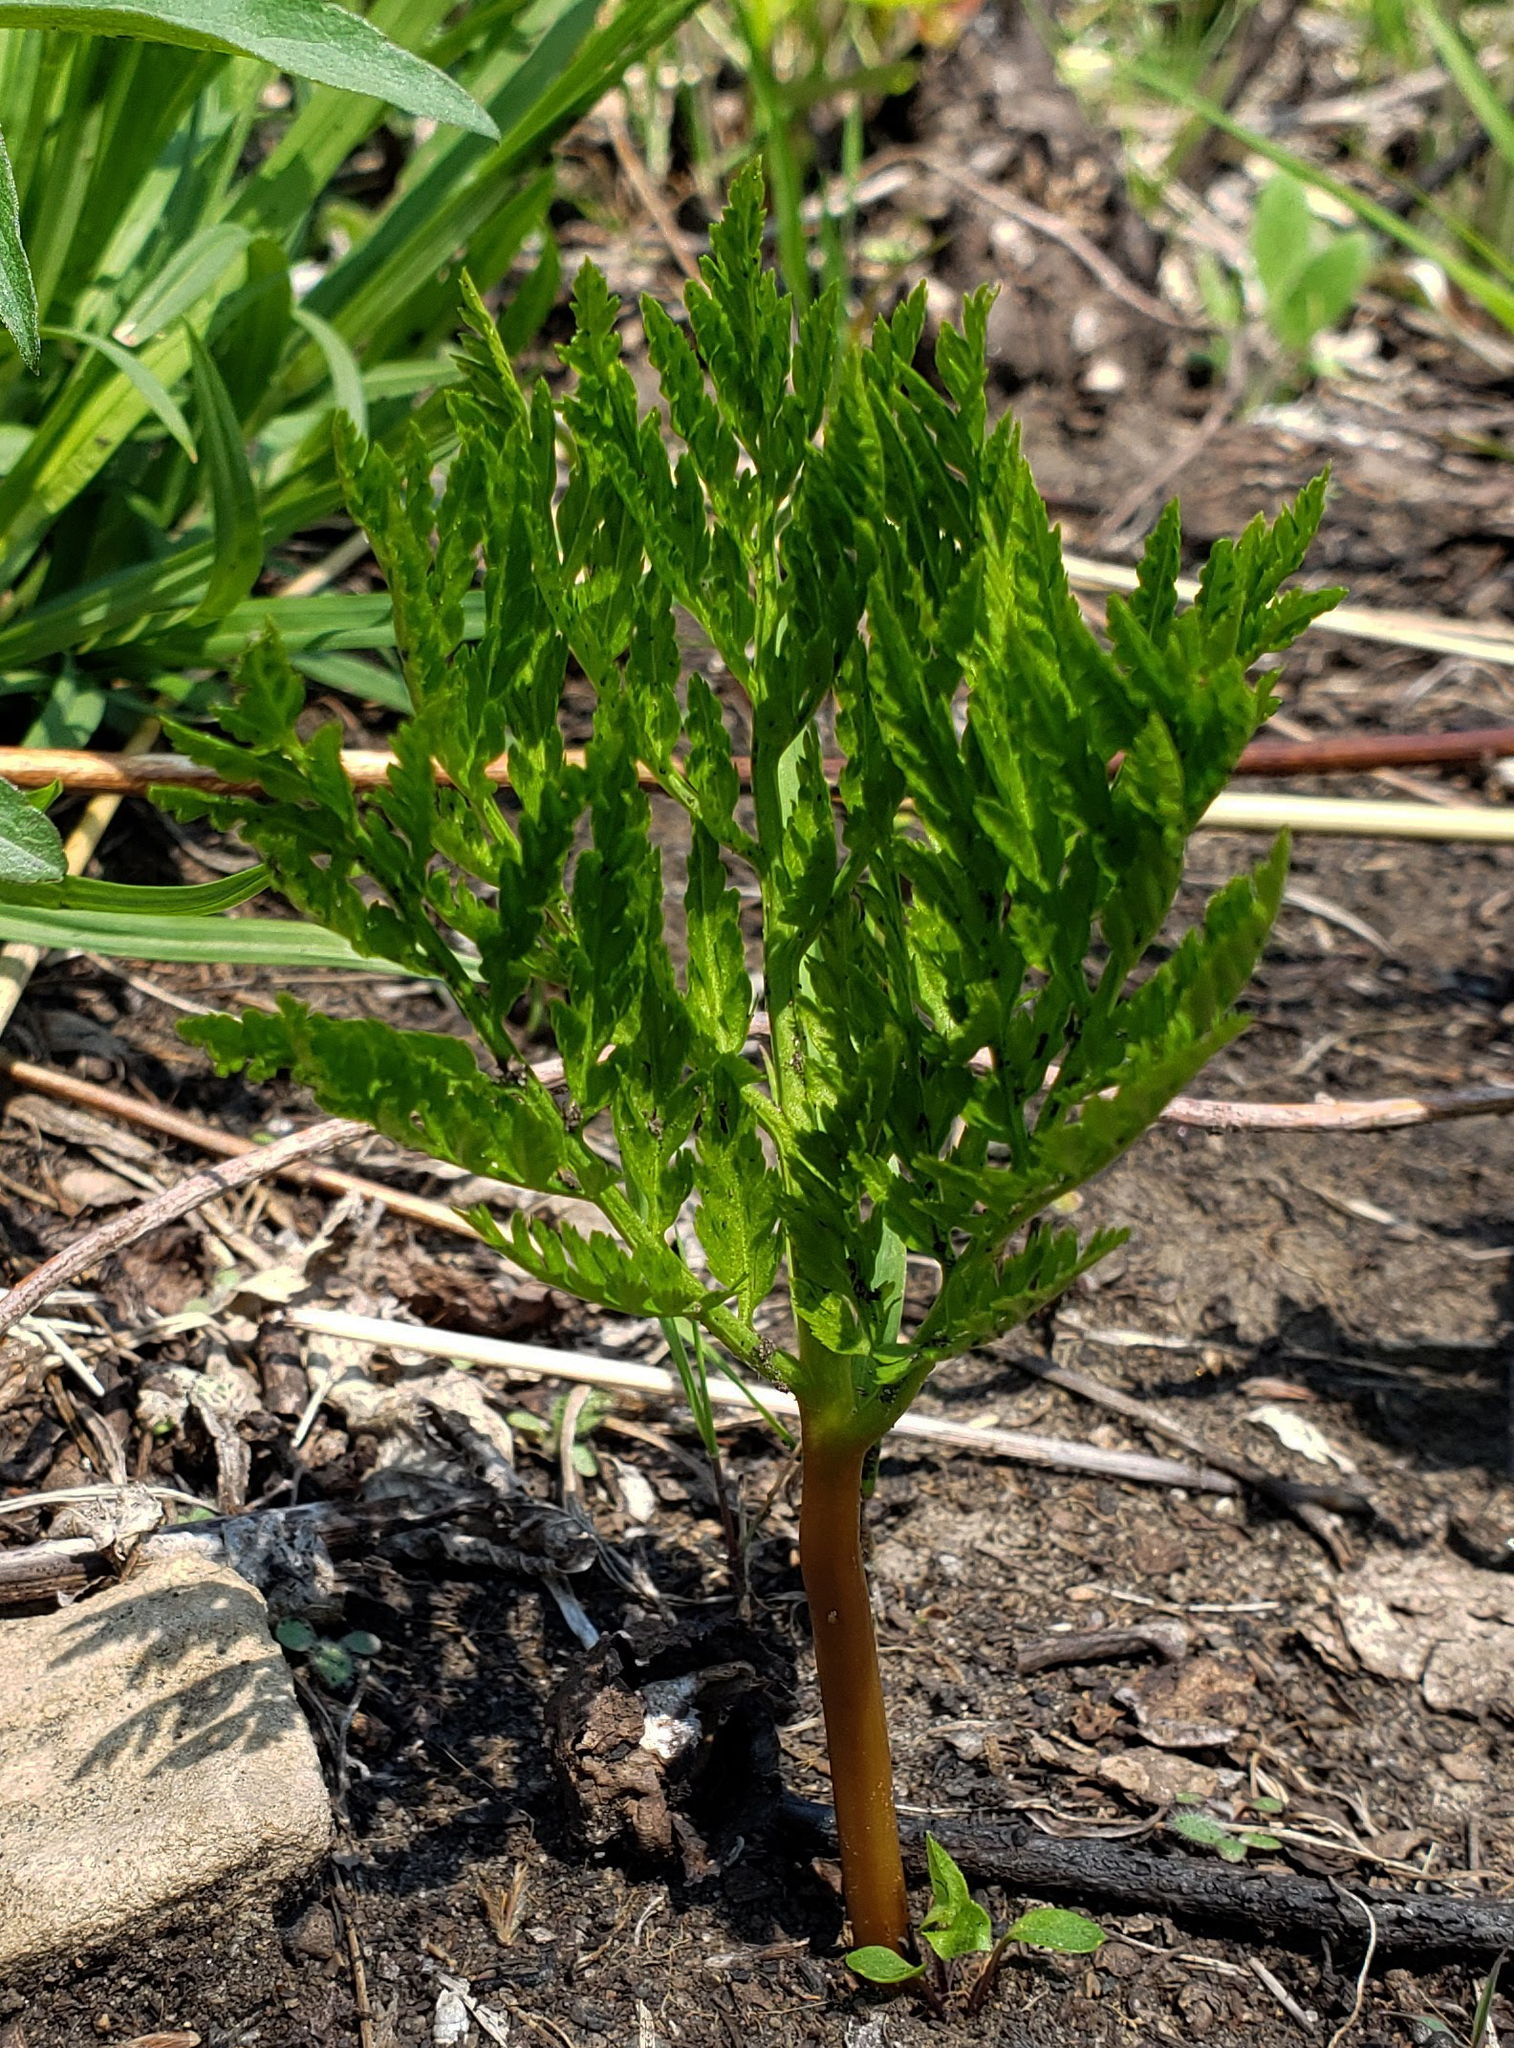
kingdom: Plantae
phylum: Tracheophyta
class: Polypodiopsida
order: Ophioglossales
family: Ophioglossaceae
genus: Botrypus
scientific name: Botrypus virginianus
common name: Common grapefern
